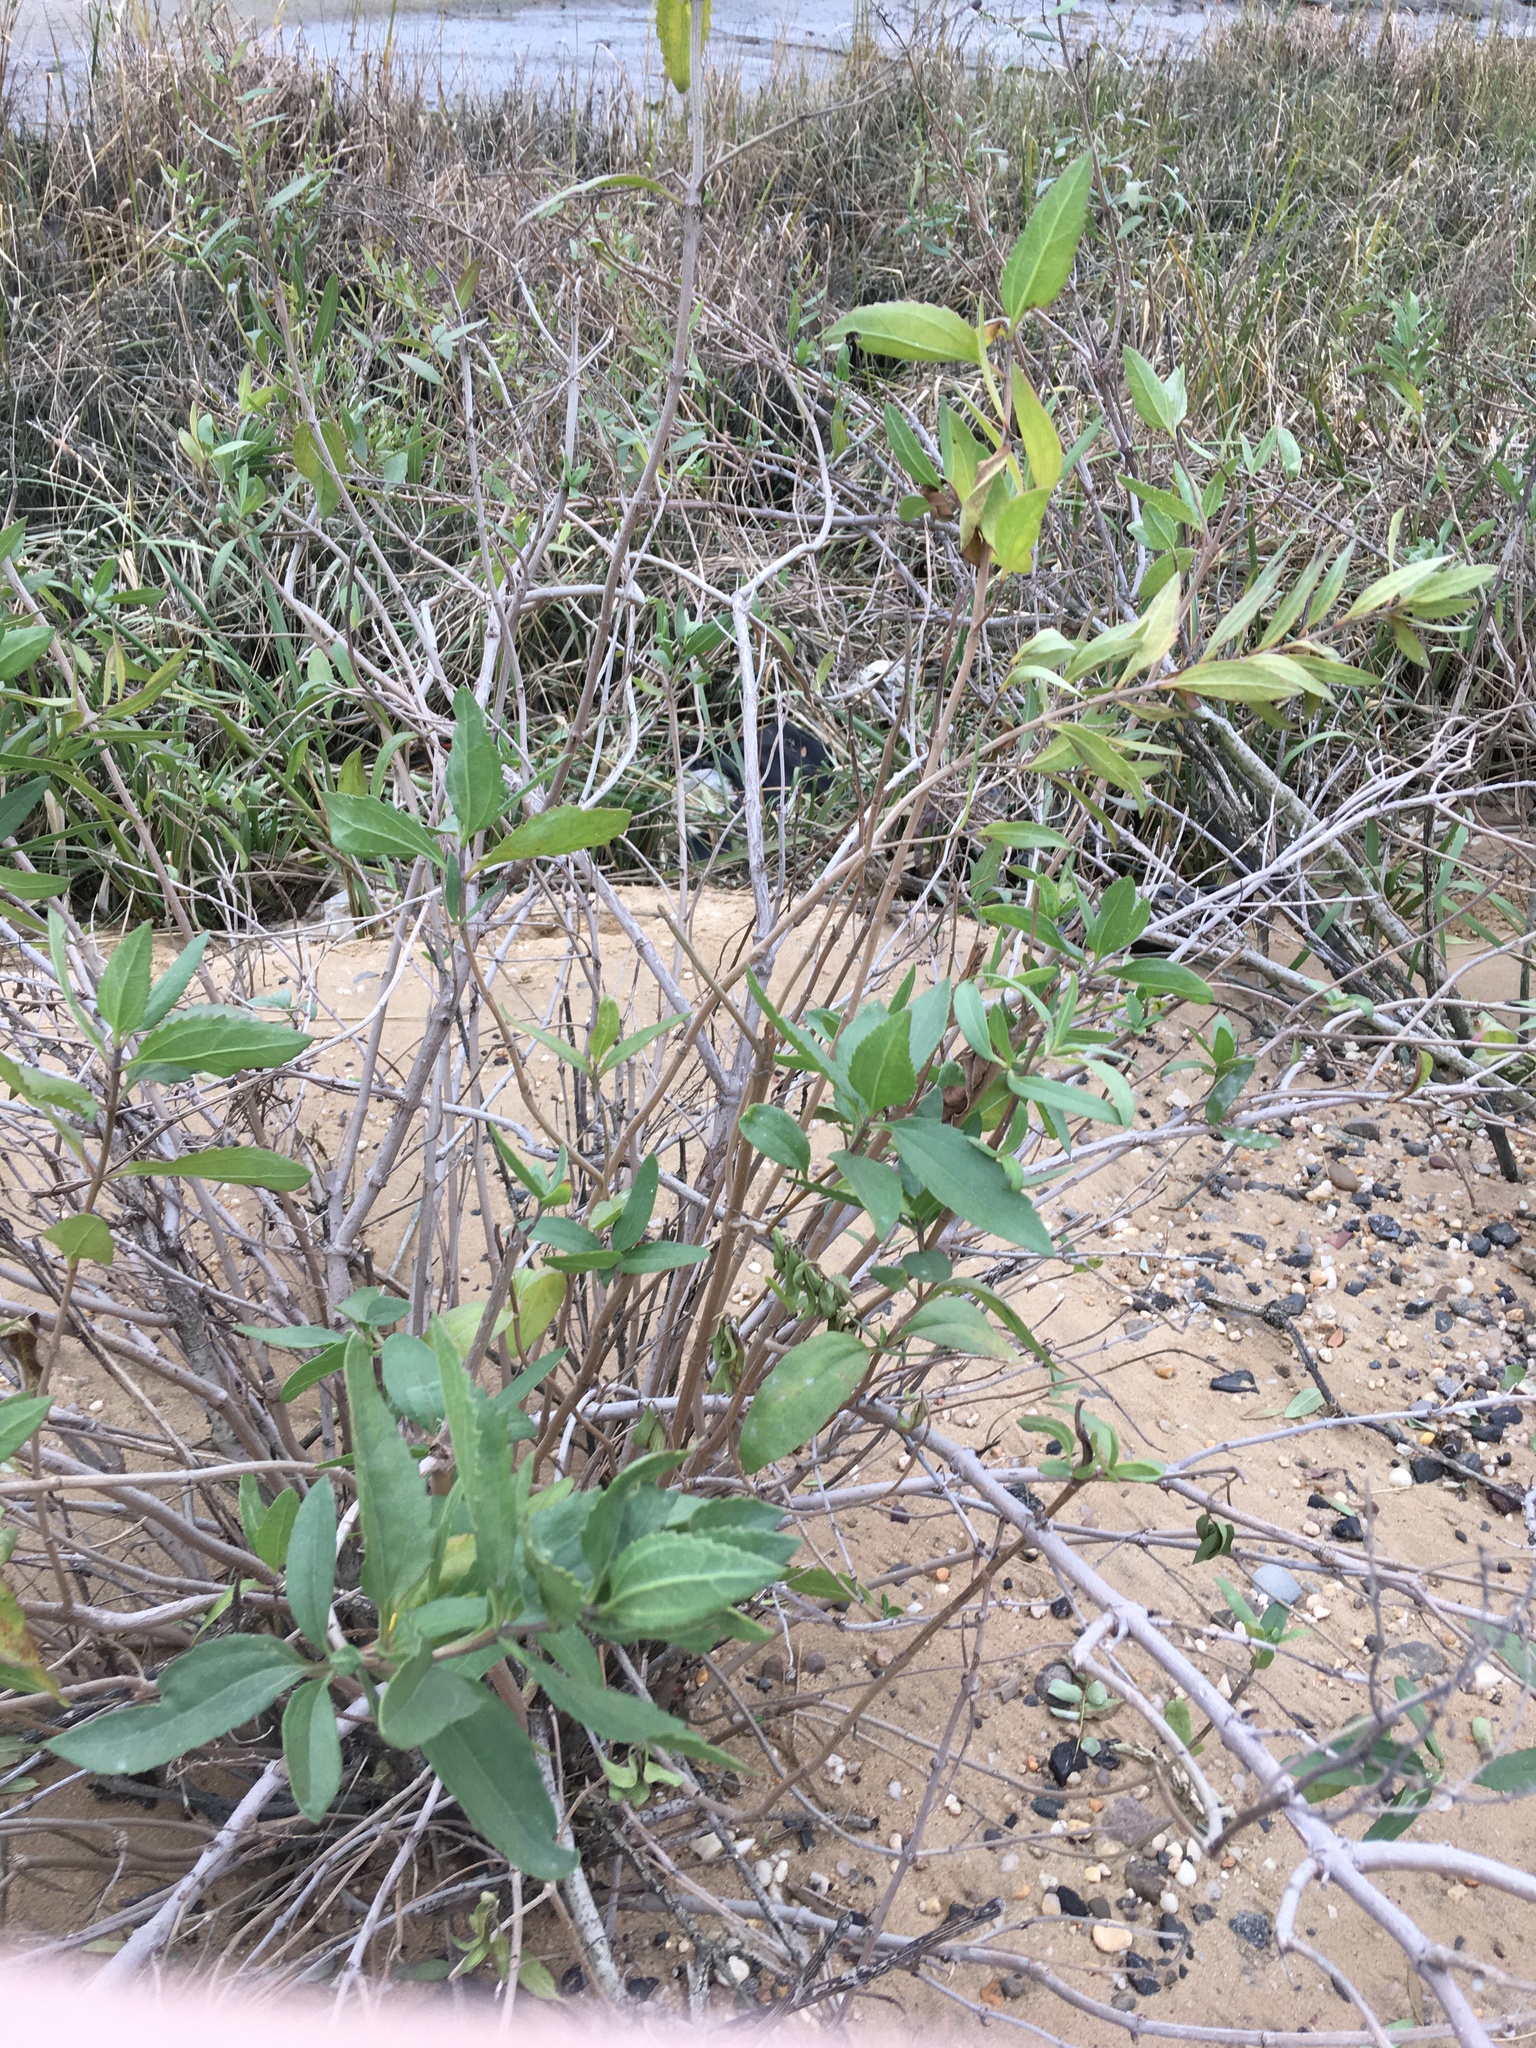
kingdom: Plantae
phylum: Tracheophyta
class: Magnoliopsida
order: Asterales
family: Asteraceae
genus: Iva
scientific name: Iva frutescens
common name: Big-leaved marsh-elder
